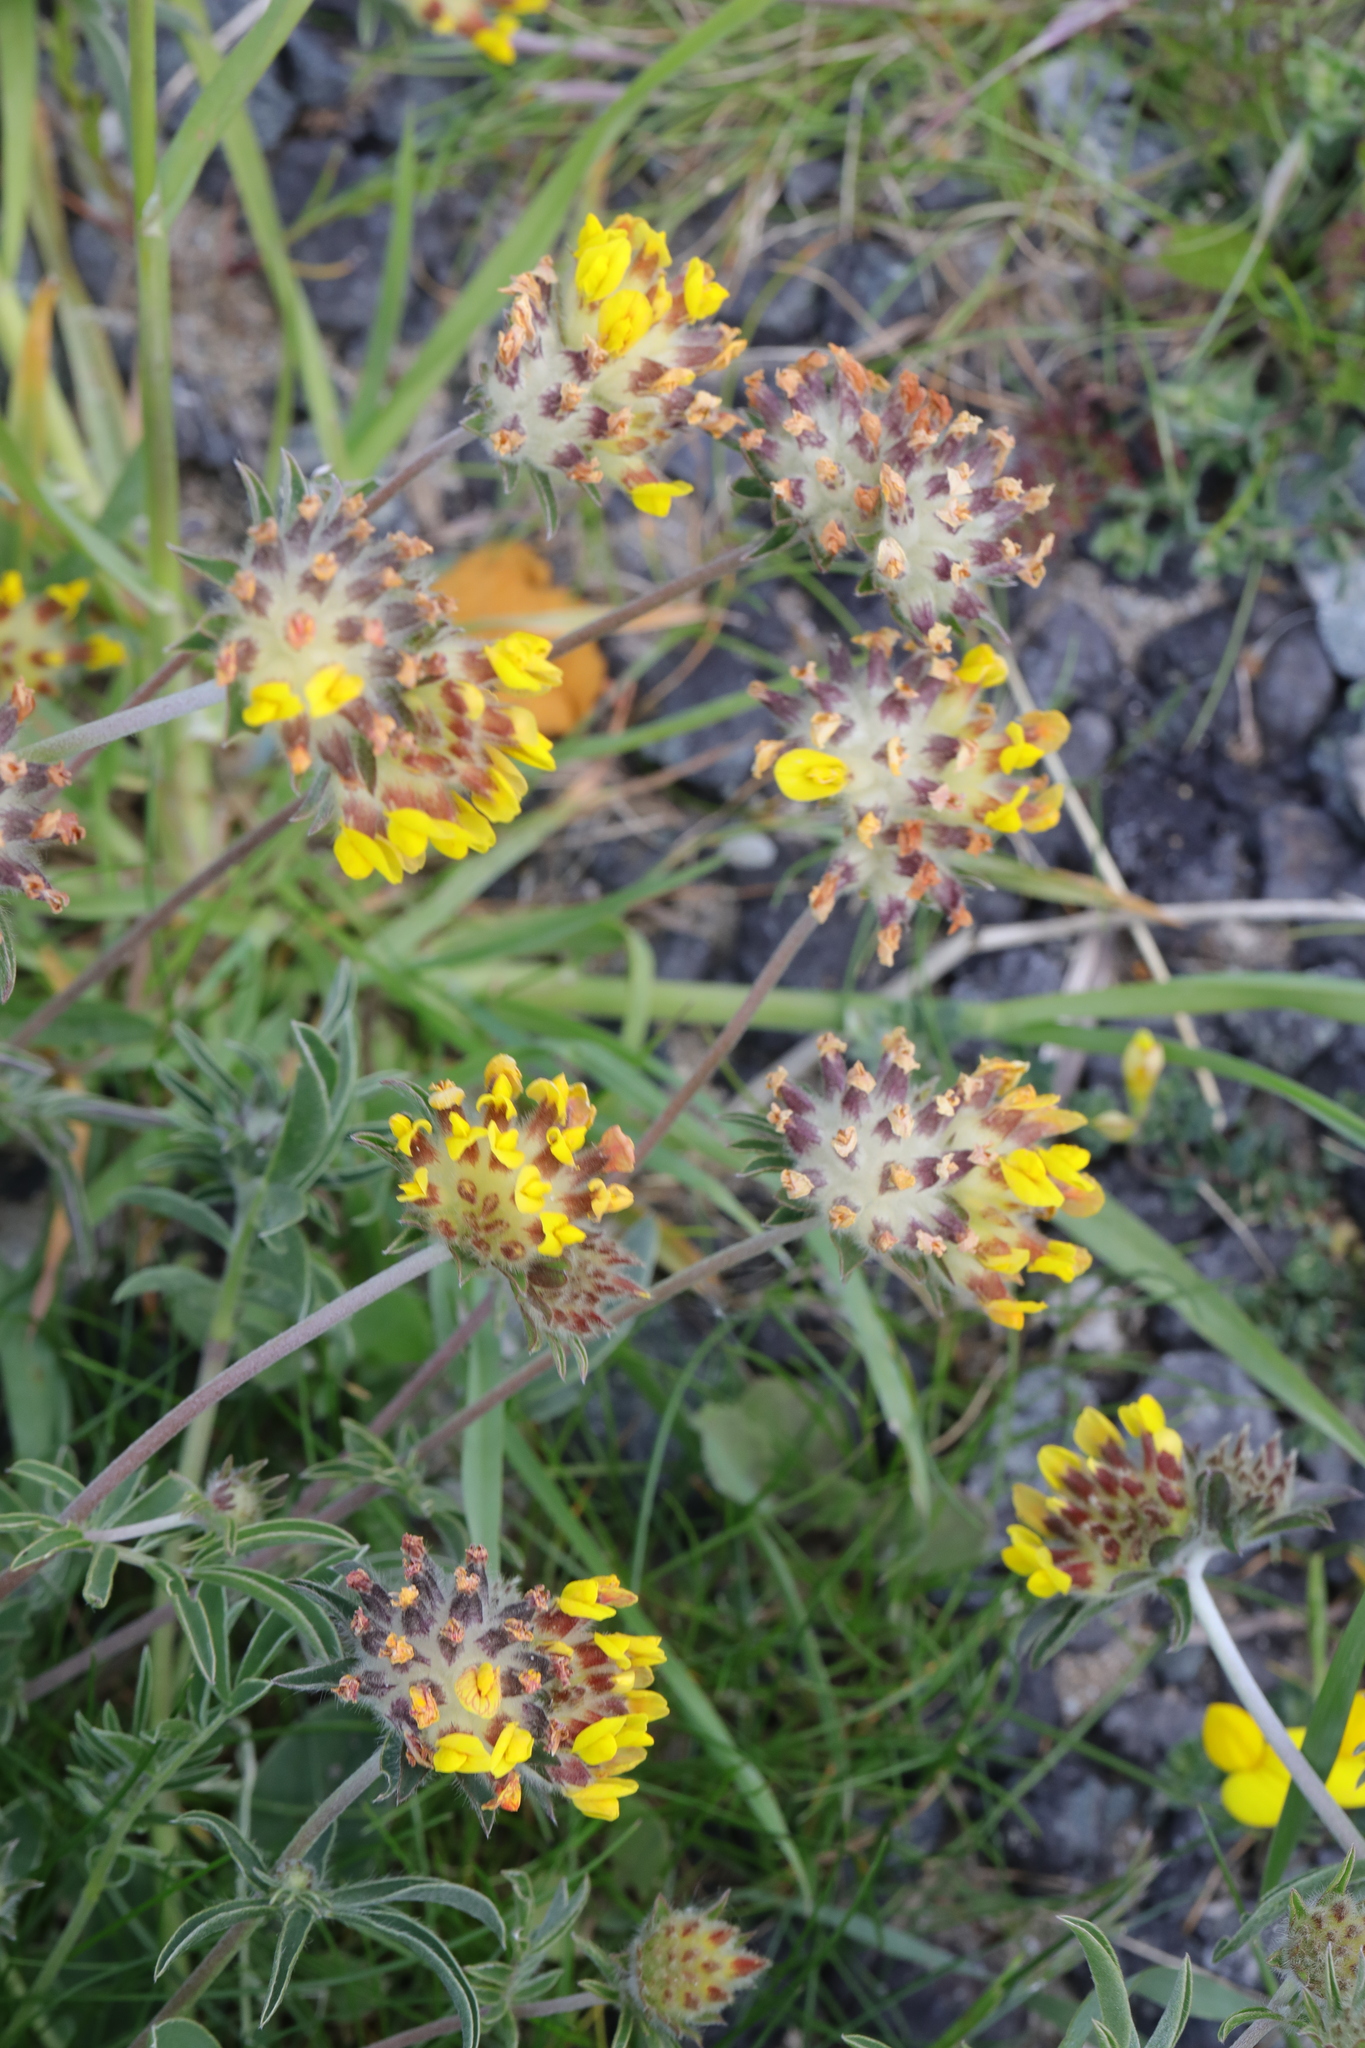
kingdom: Plantae
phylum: Tracheophyta
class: Magnoliopsida
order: Fabales
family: Fabaceae
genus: Anthyllis
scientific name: Anthyllis vulneraria
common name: Kidney vetch
